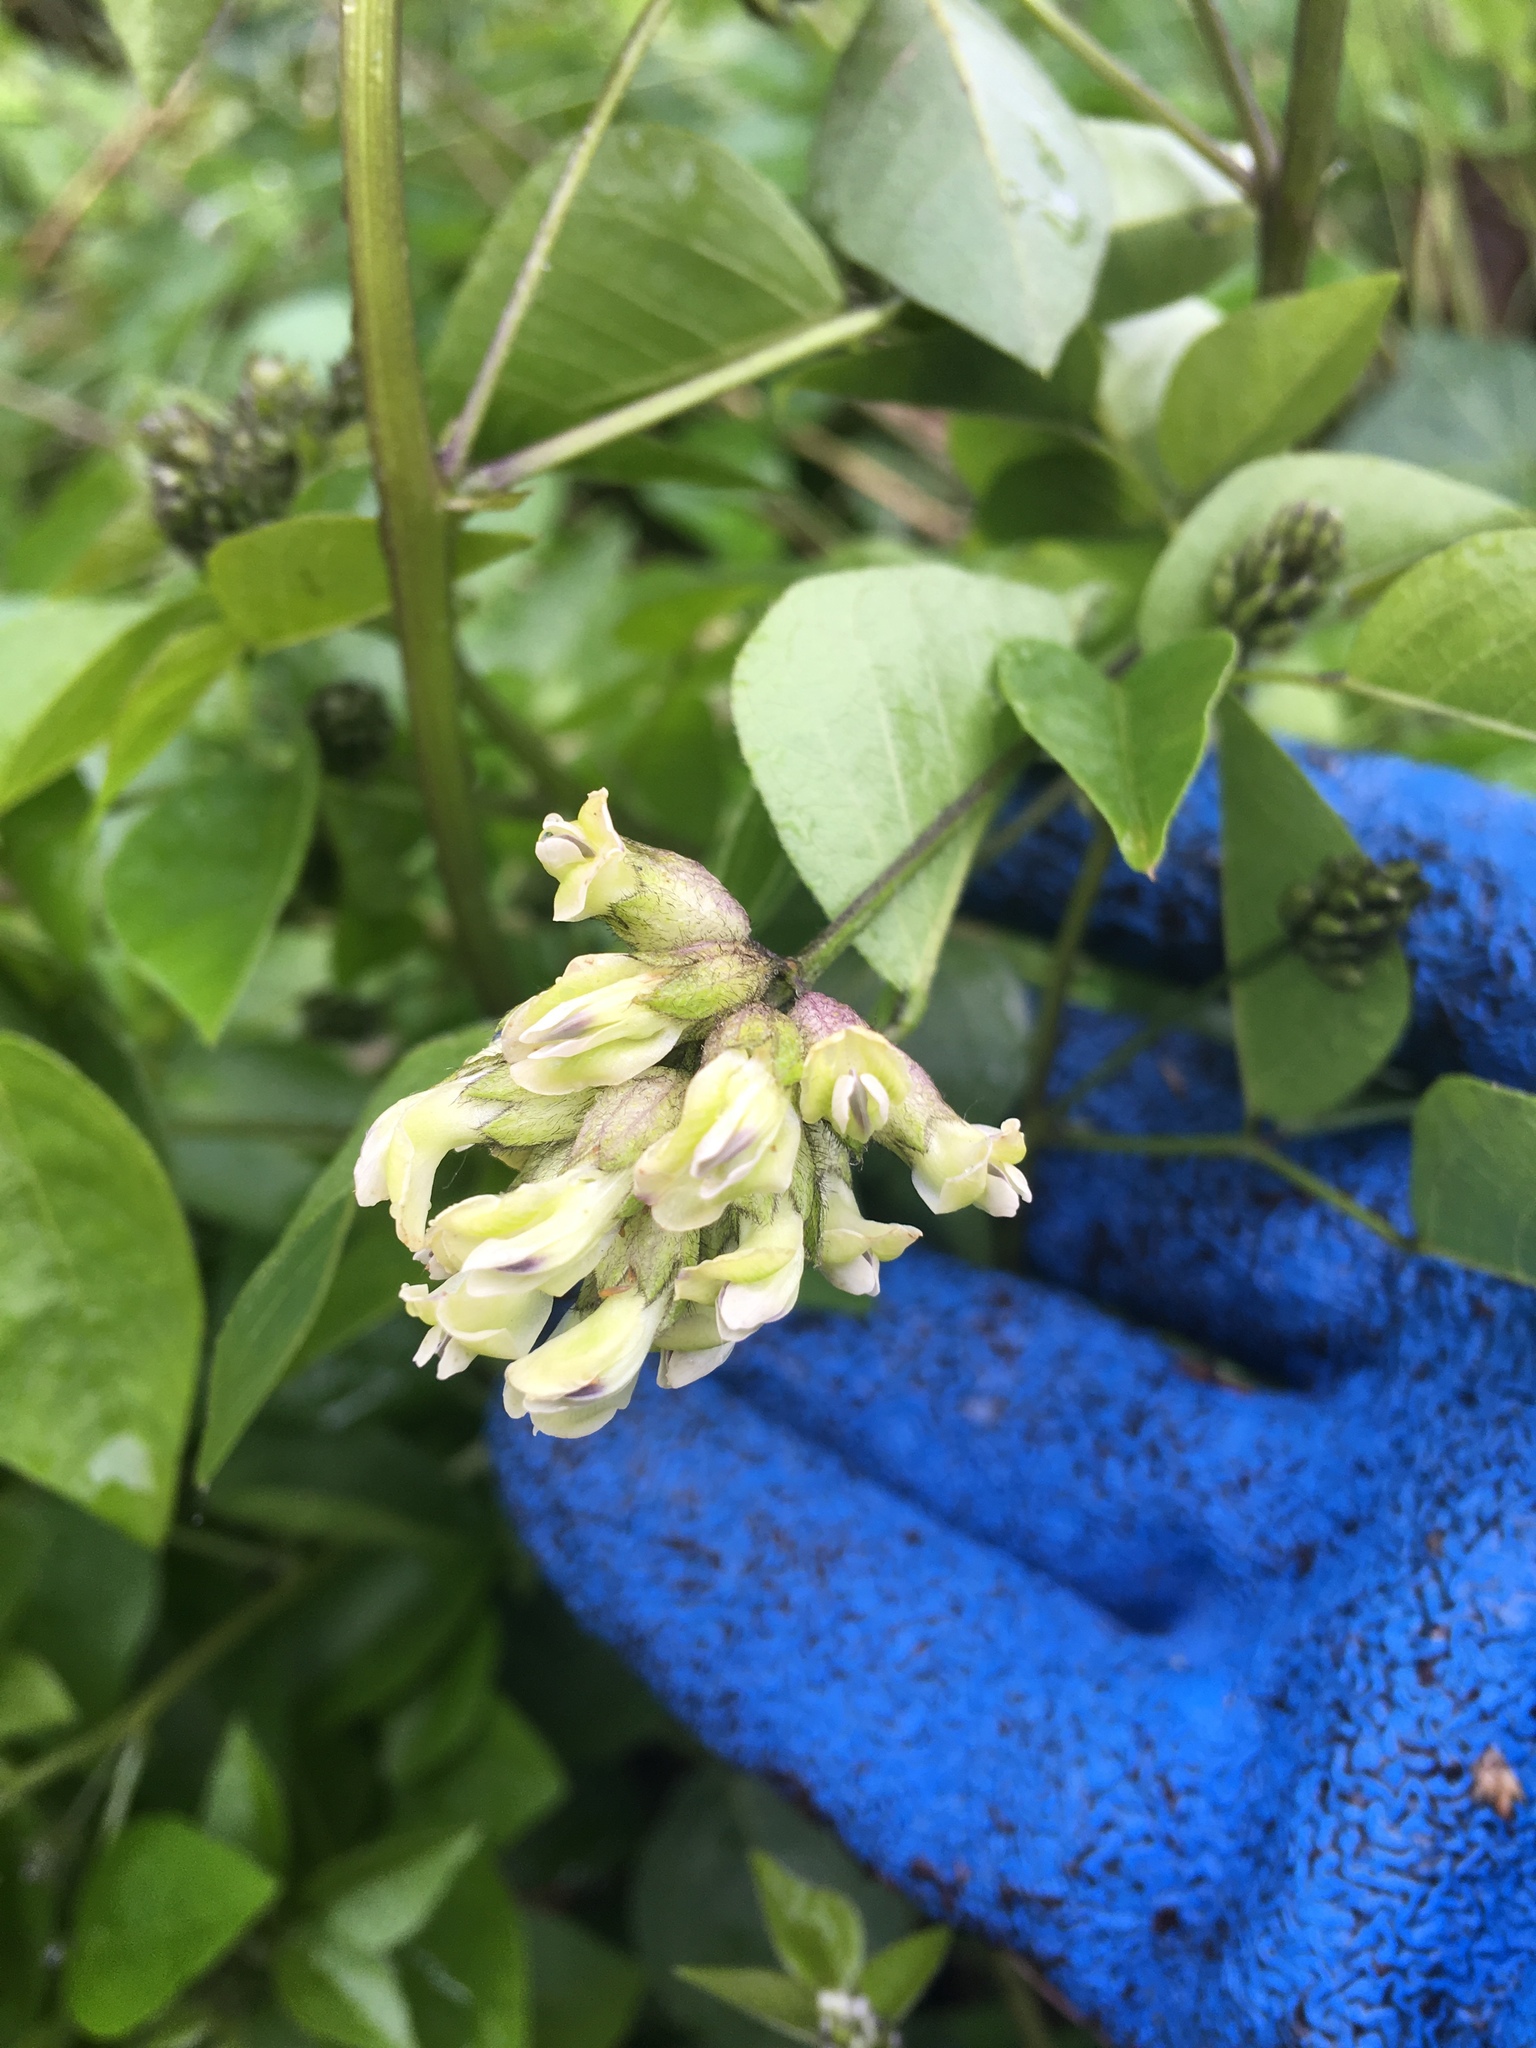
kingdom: Plantae
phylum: Tracheophyta
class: Magnoliopsida
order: Fabales
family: Fabaceae
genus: Rupertia
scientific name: Rupertia physodes
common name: California-tea
